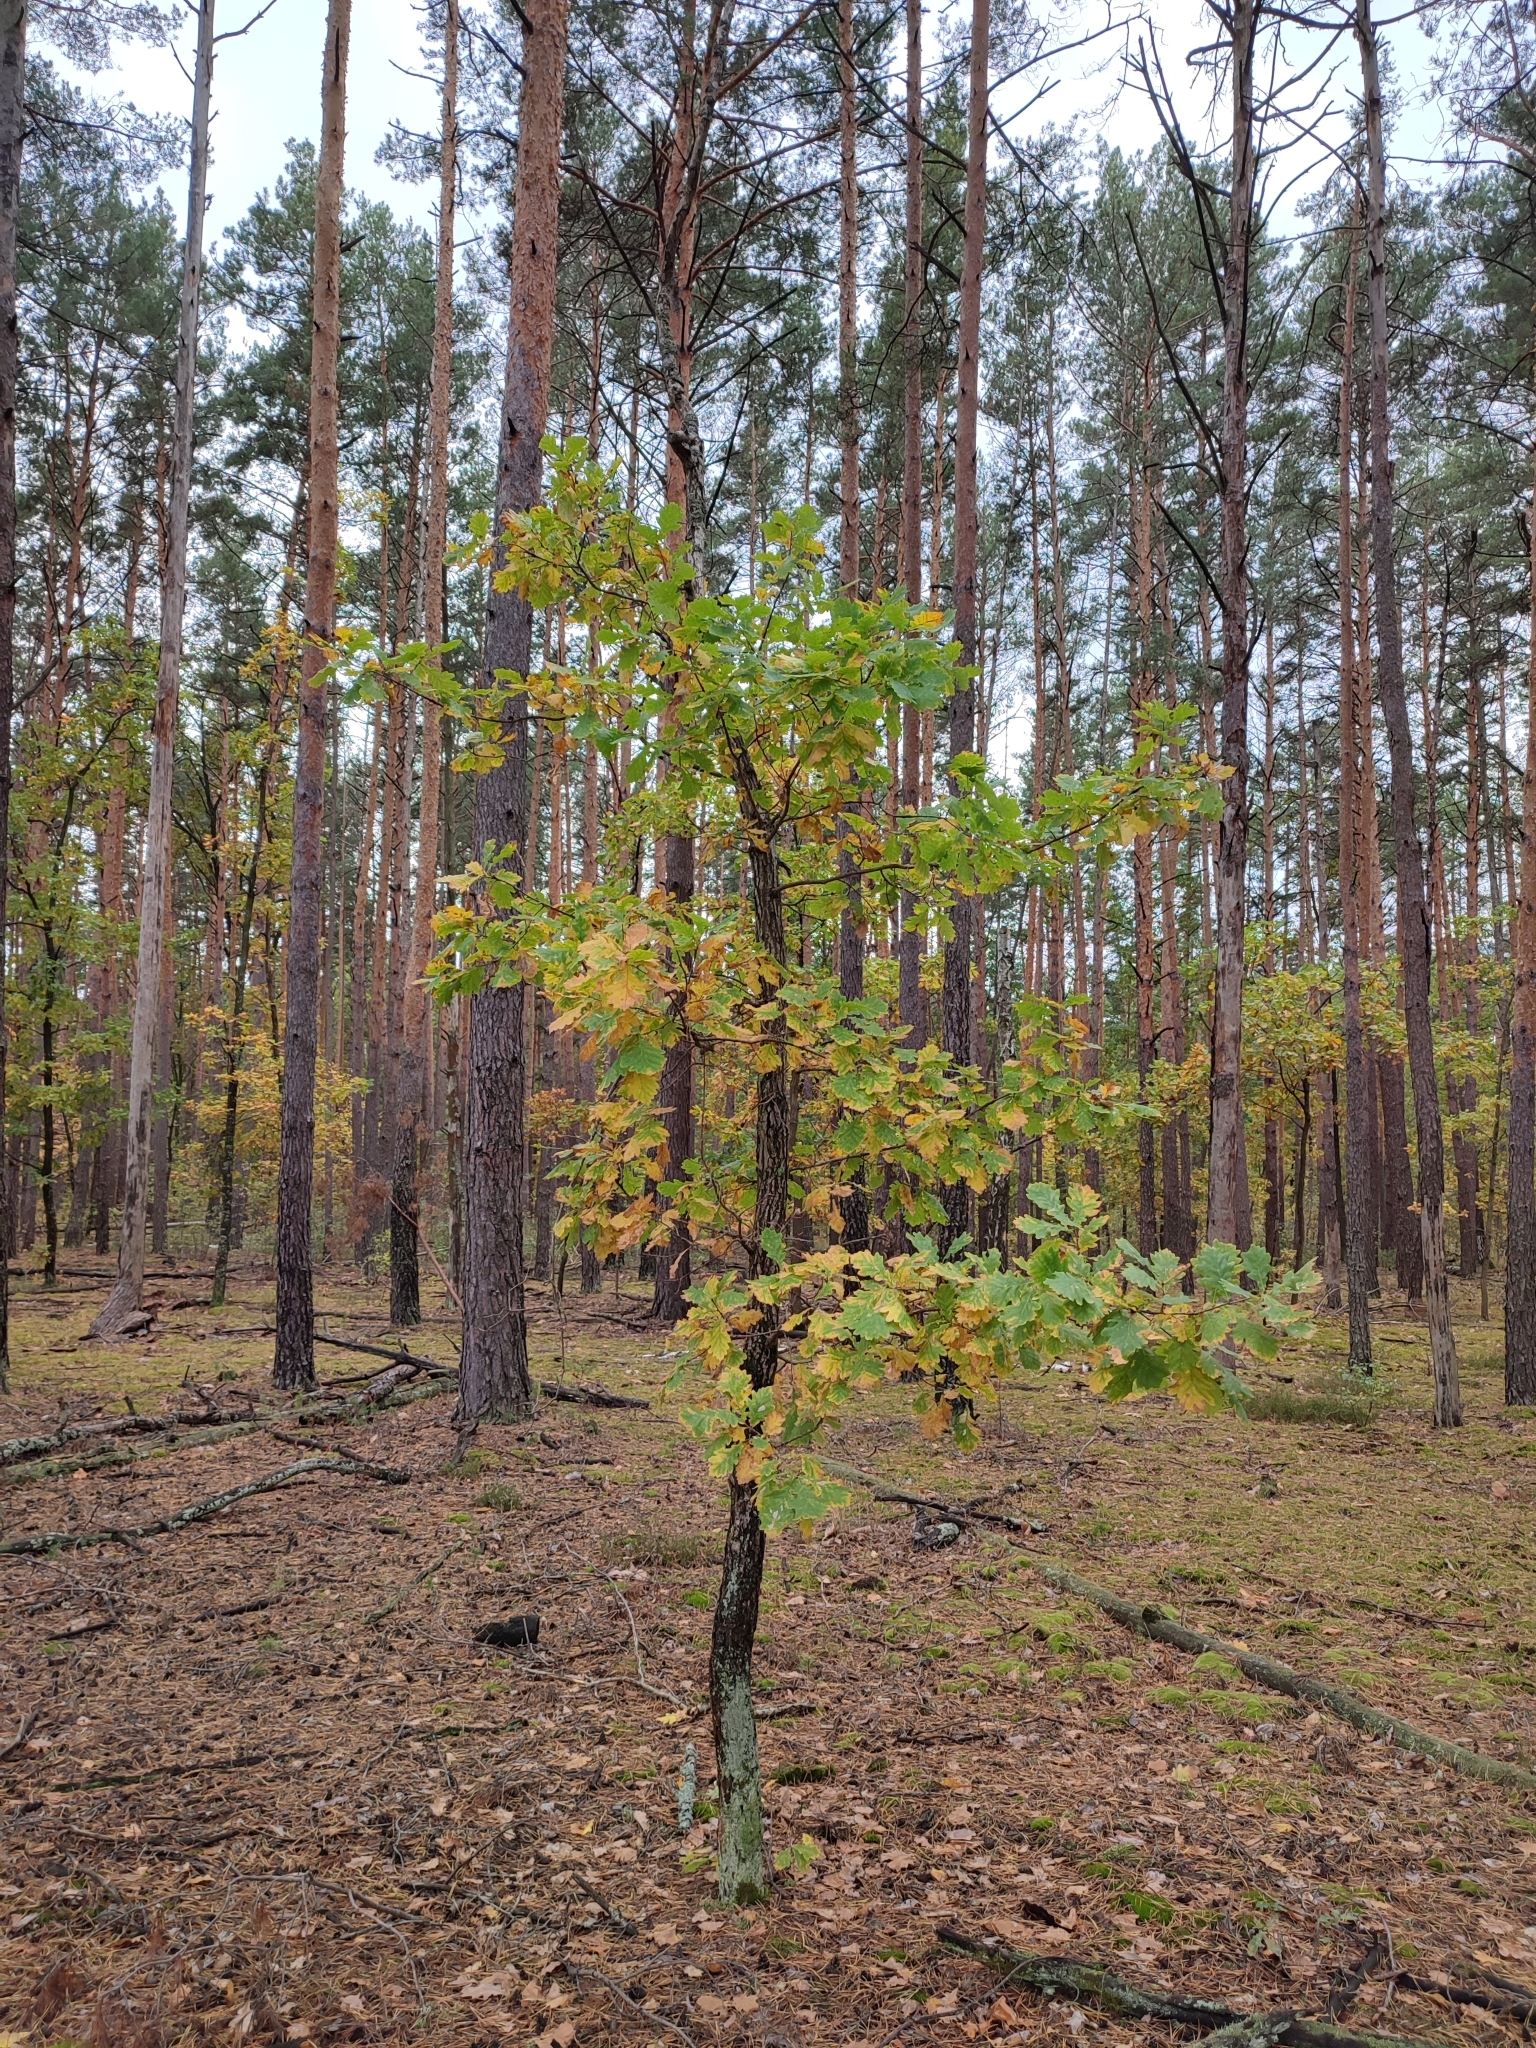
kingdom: Plantae
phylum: Tracheophyta
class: Magnoliopsida
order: Fagales
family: Fagaceae
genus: Quercus
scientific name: Quercus robur
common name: Pedunculate oak
